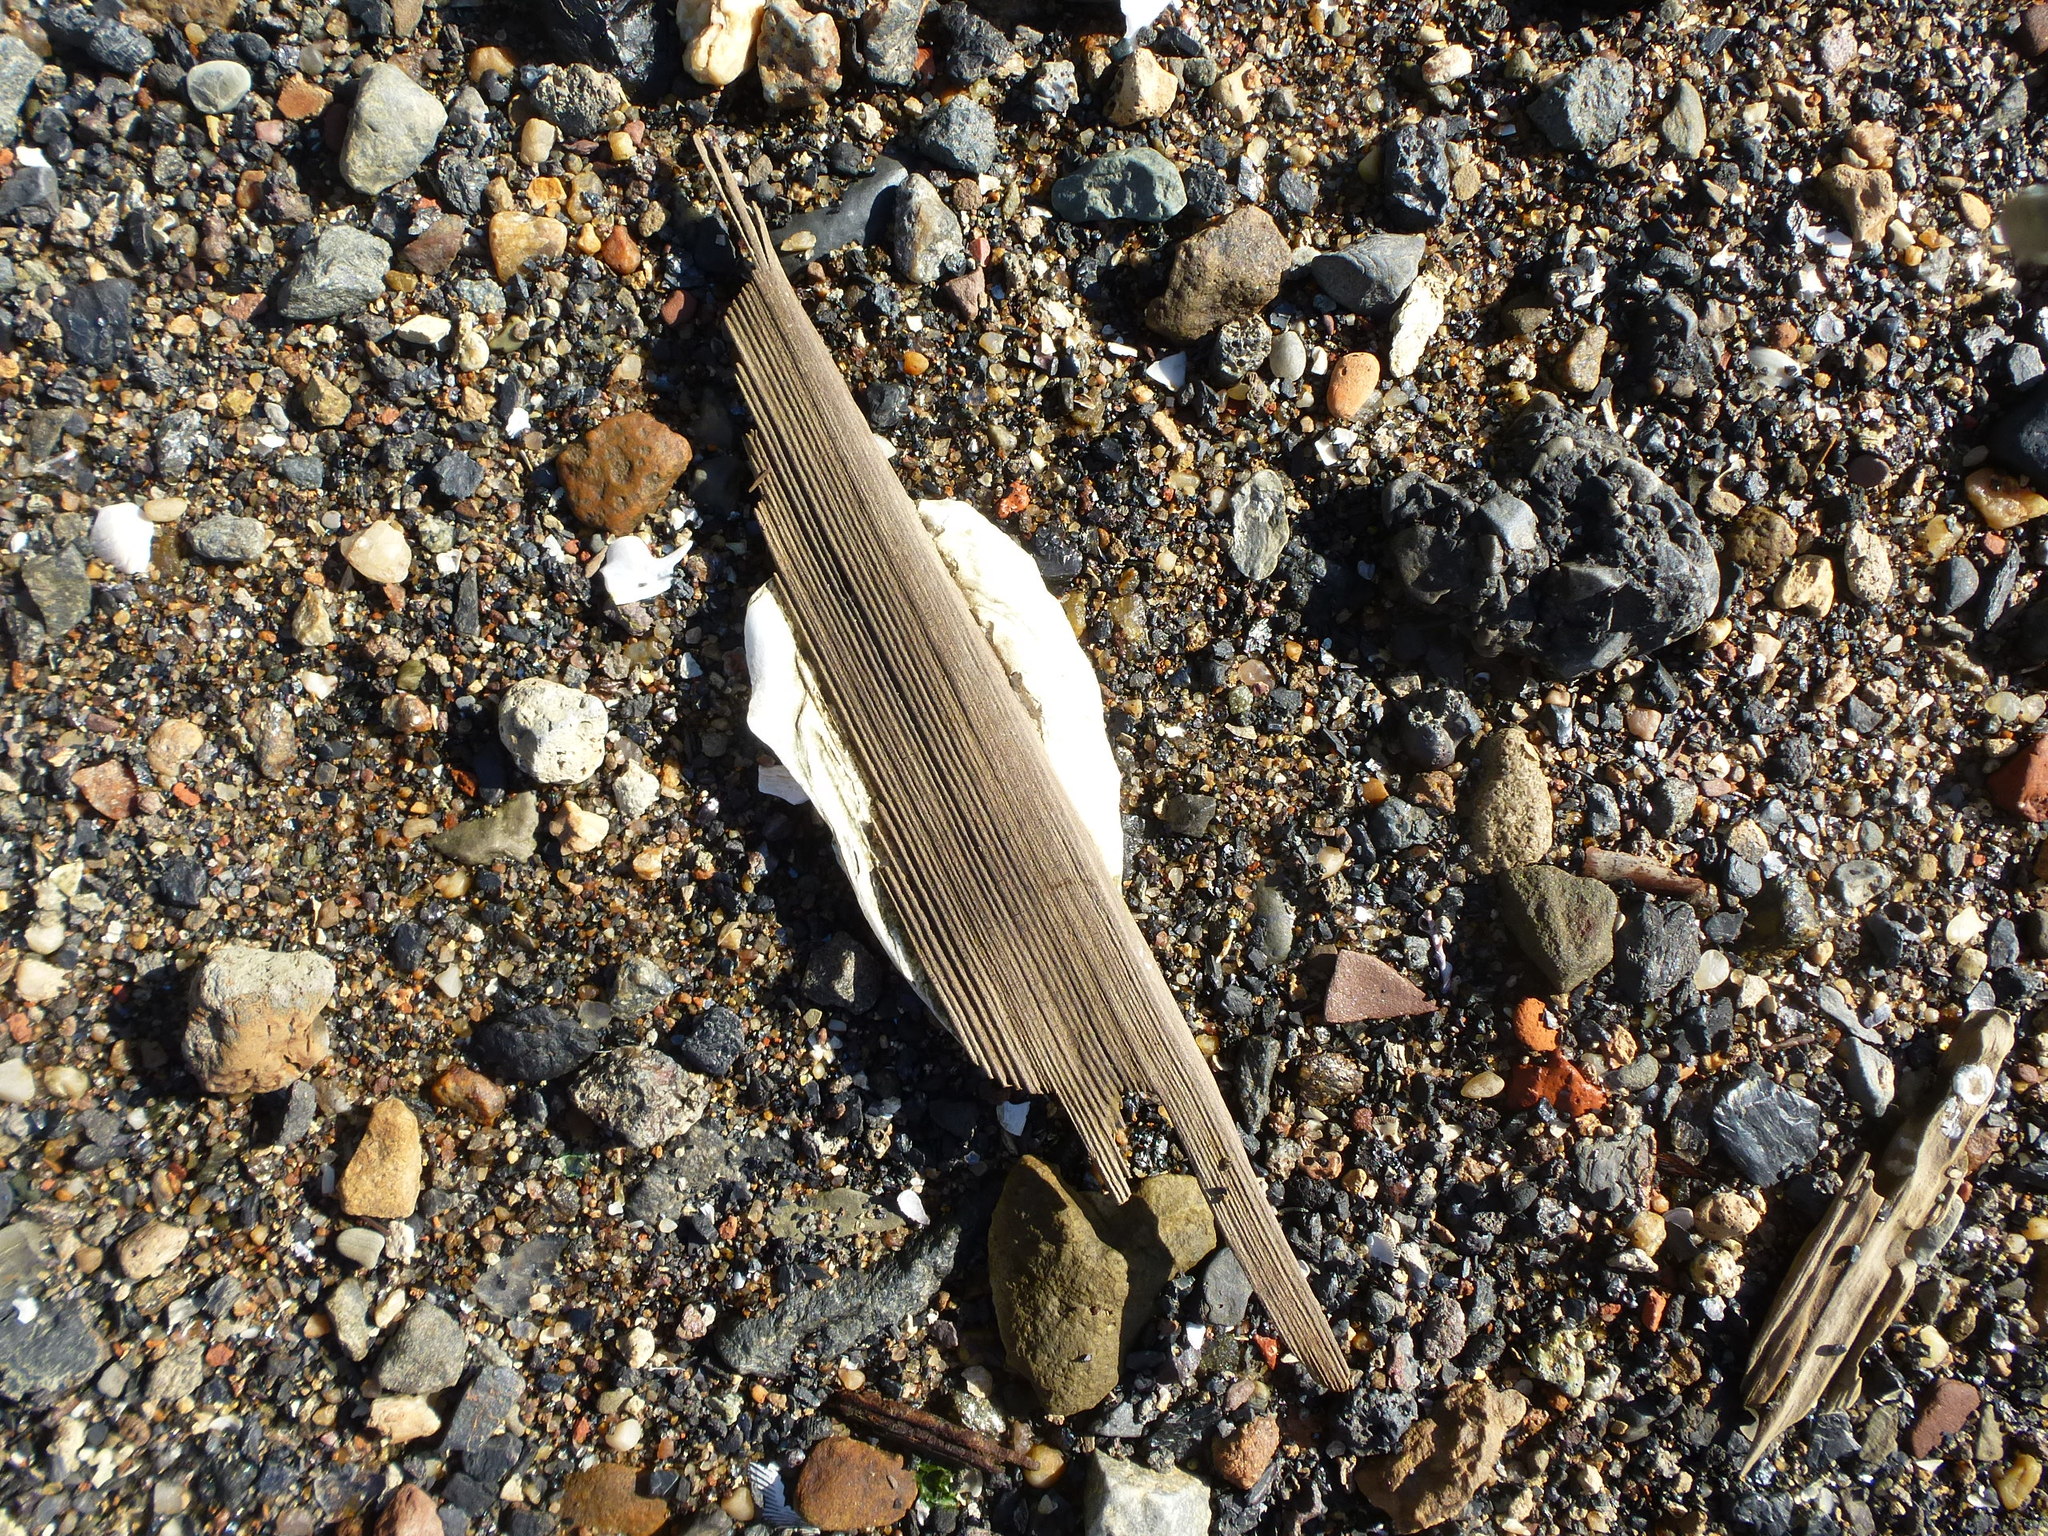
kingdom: Animalia
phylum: Mollusca
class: Bivalvia
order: Ostreida
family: Ostreidae
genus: Crassostrea
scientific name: Crassostrea virginica
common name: American oyster
